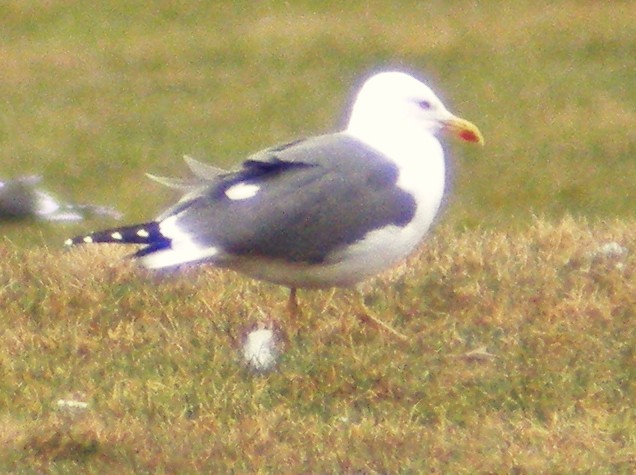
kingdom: Animalia
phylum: Chordata
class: Aves
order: Charadriiformes
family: Laridae
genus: Larus
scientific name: Larus fuscus
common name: Lesser black-backed gull
